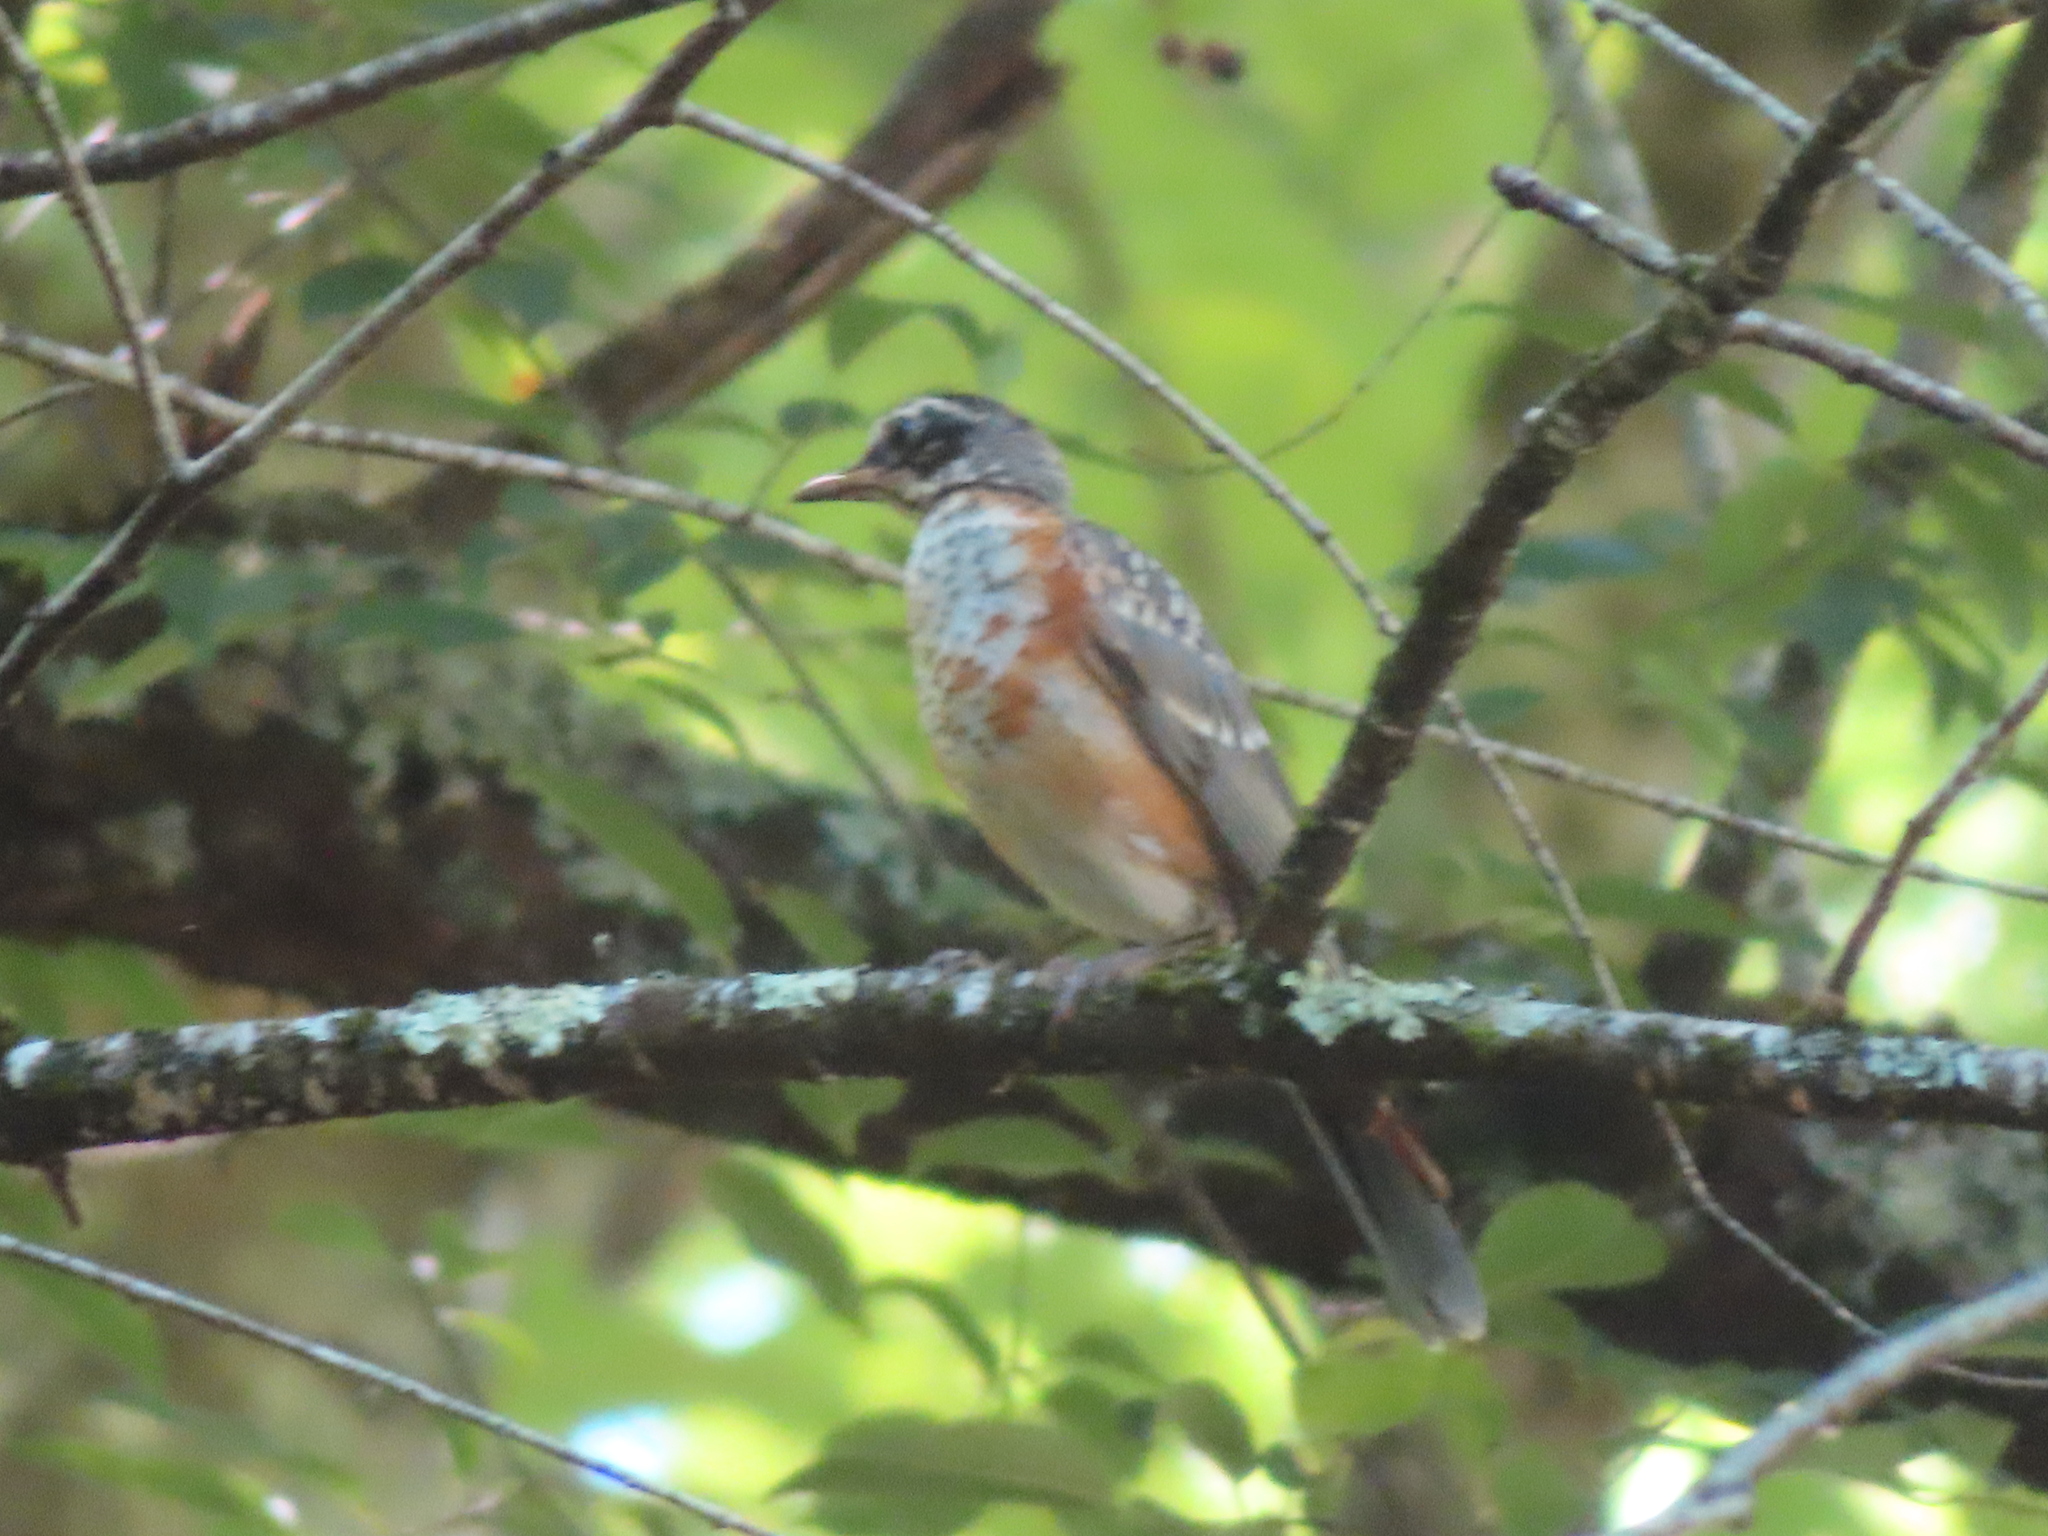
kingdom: Animalia
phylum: Chordata
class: Aves
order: Passeriformes
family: Turdidae
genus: Turdus
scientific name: Turdus migratorius
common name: American robin
